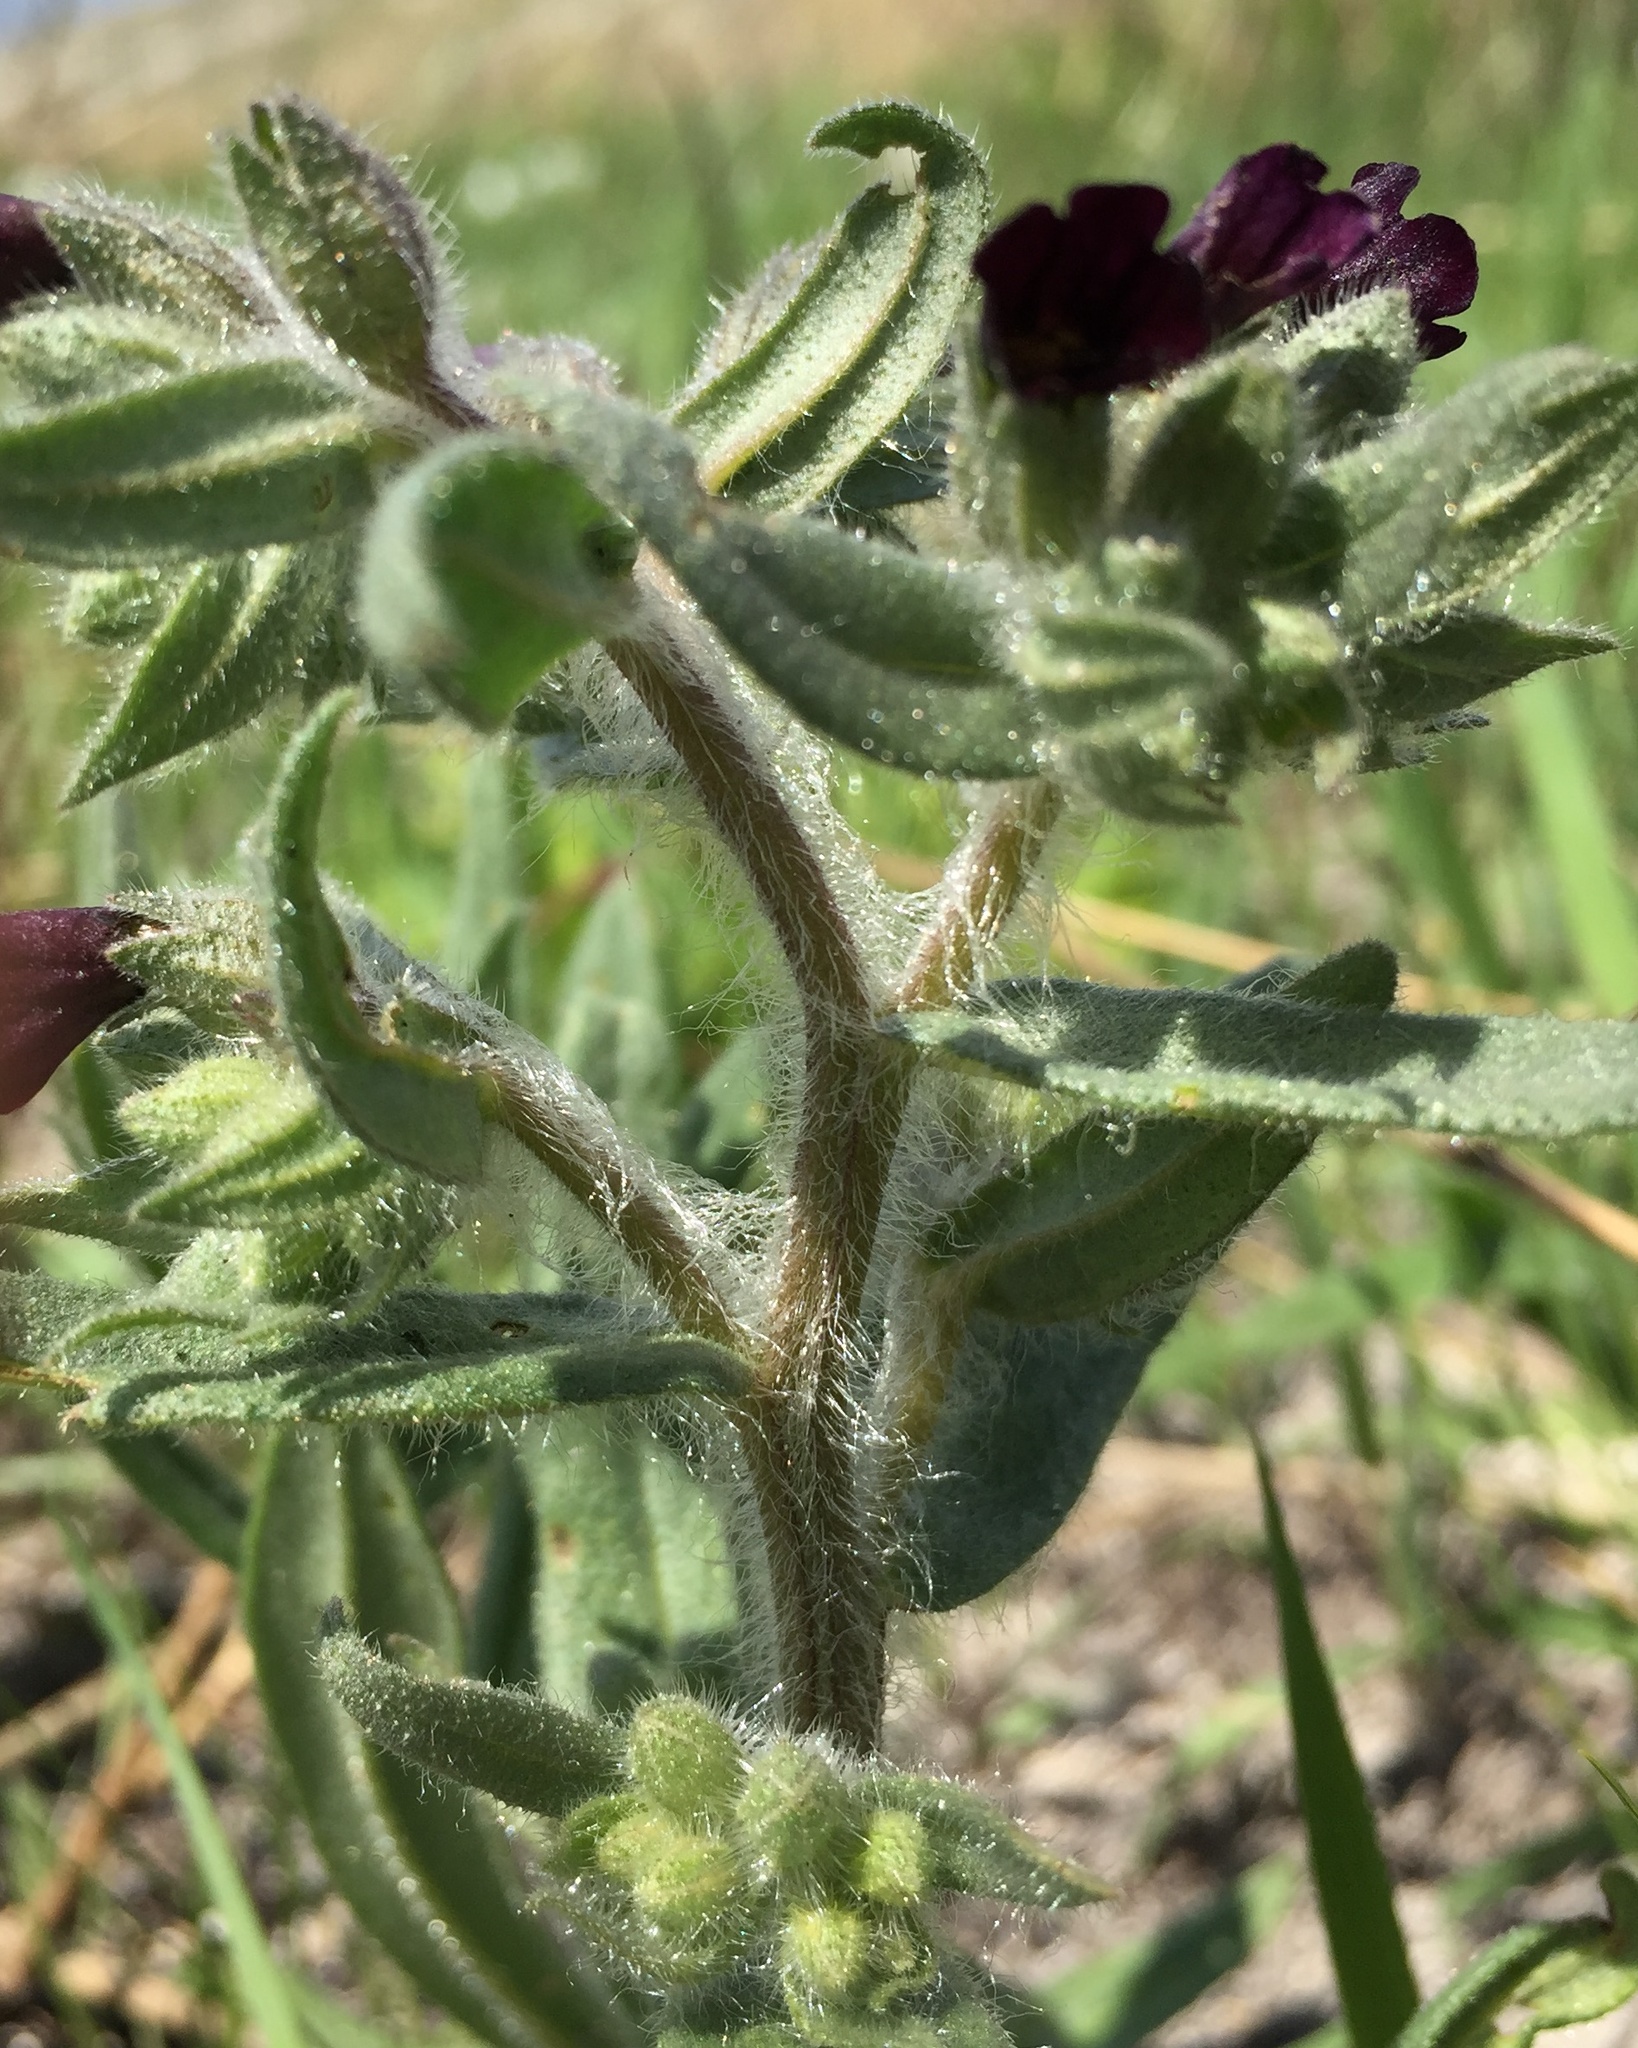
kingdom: Plantae
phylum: Tracheophyta
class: Magnoliopsida
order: Boraginales
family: Boraginaceae
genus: Nonea
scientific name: Nonea pulla
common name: Brown nonea
